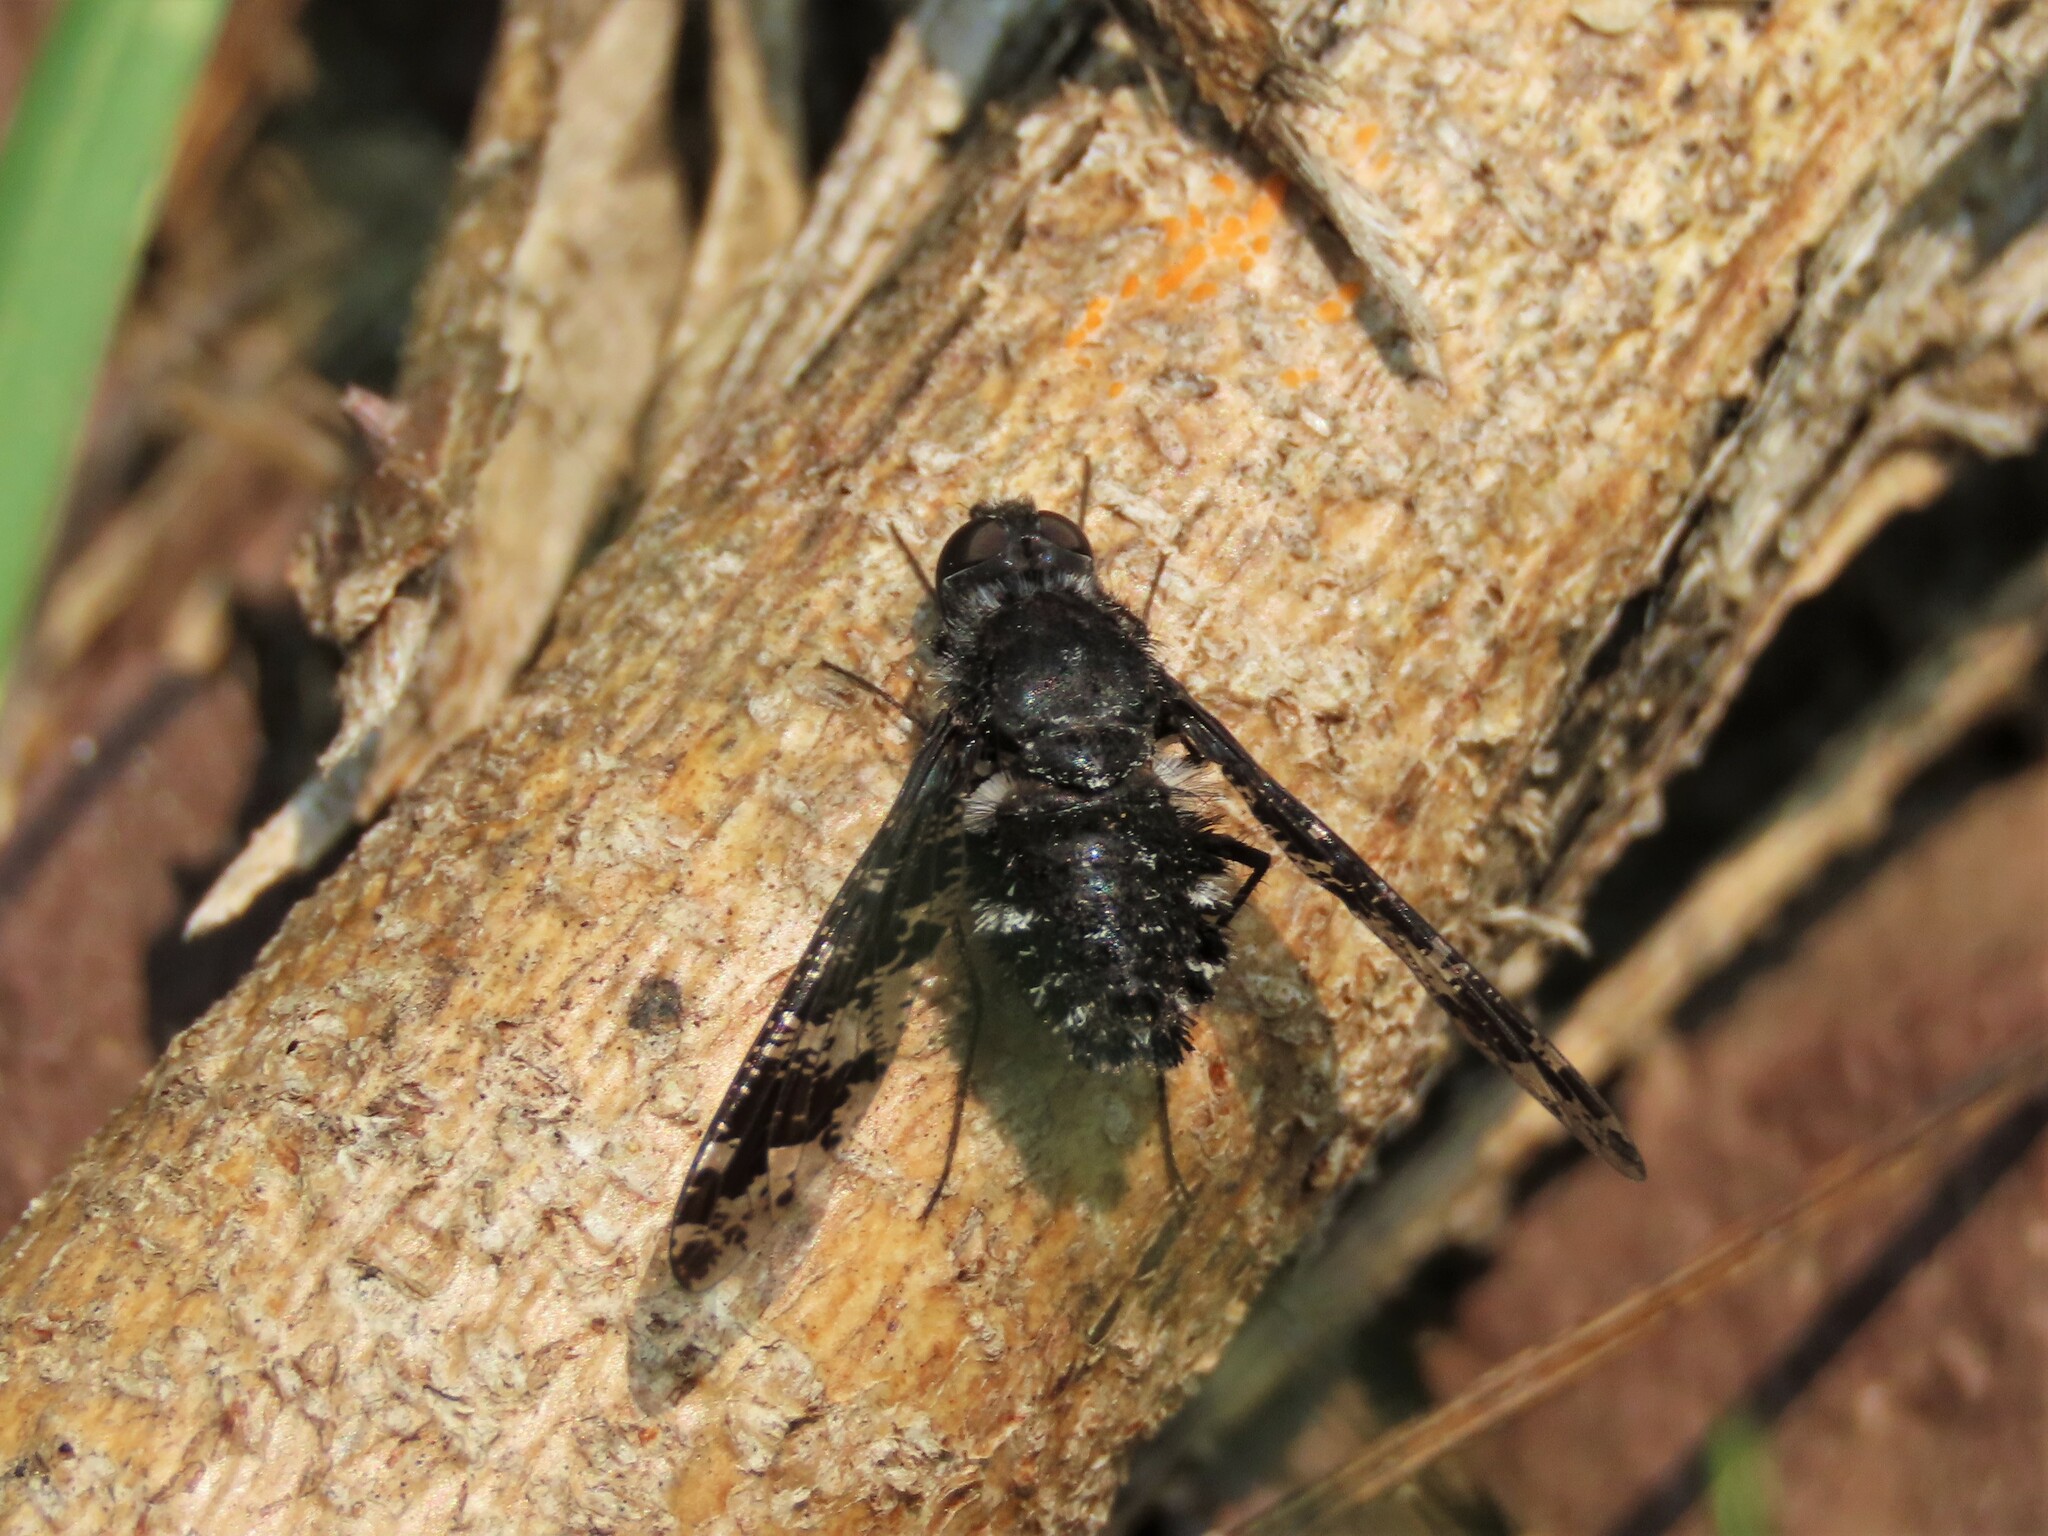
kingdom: Animalia
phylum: Arthropoda
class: Insecta
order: Diptera
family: Bombyliidae
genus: Anthrax
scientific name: Anthrax irroratus
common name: Spotted bee fly
